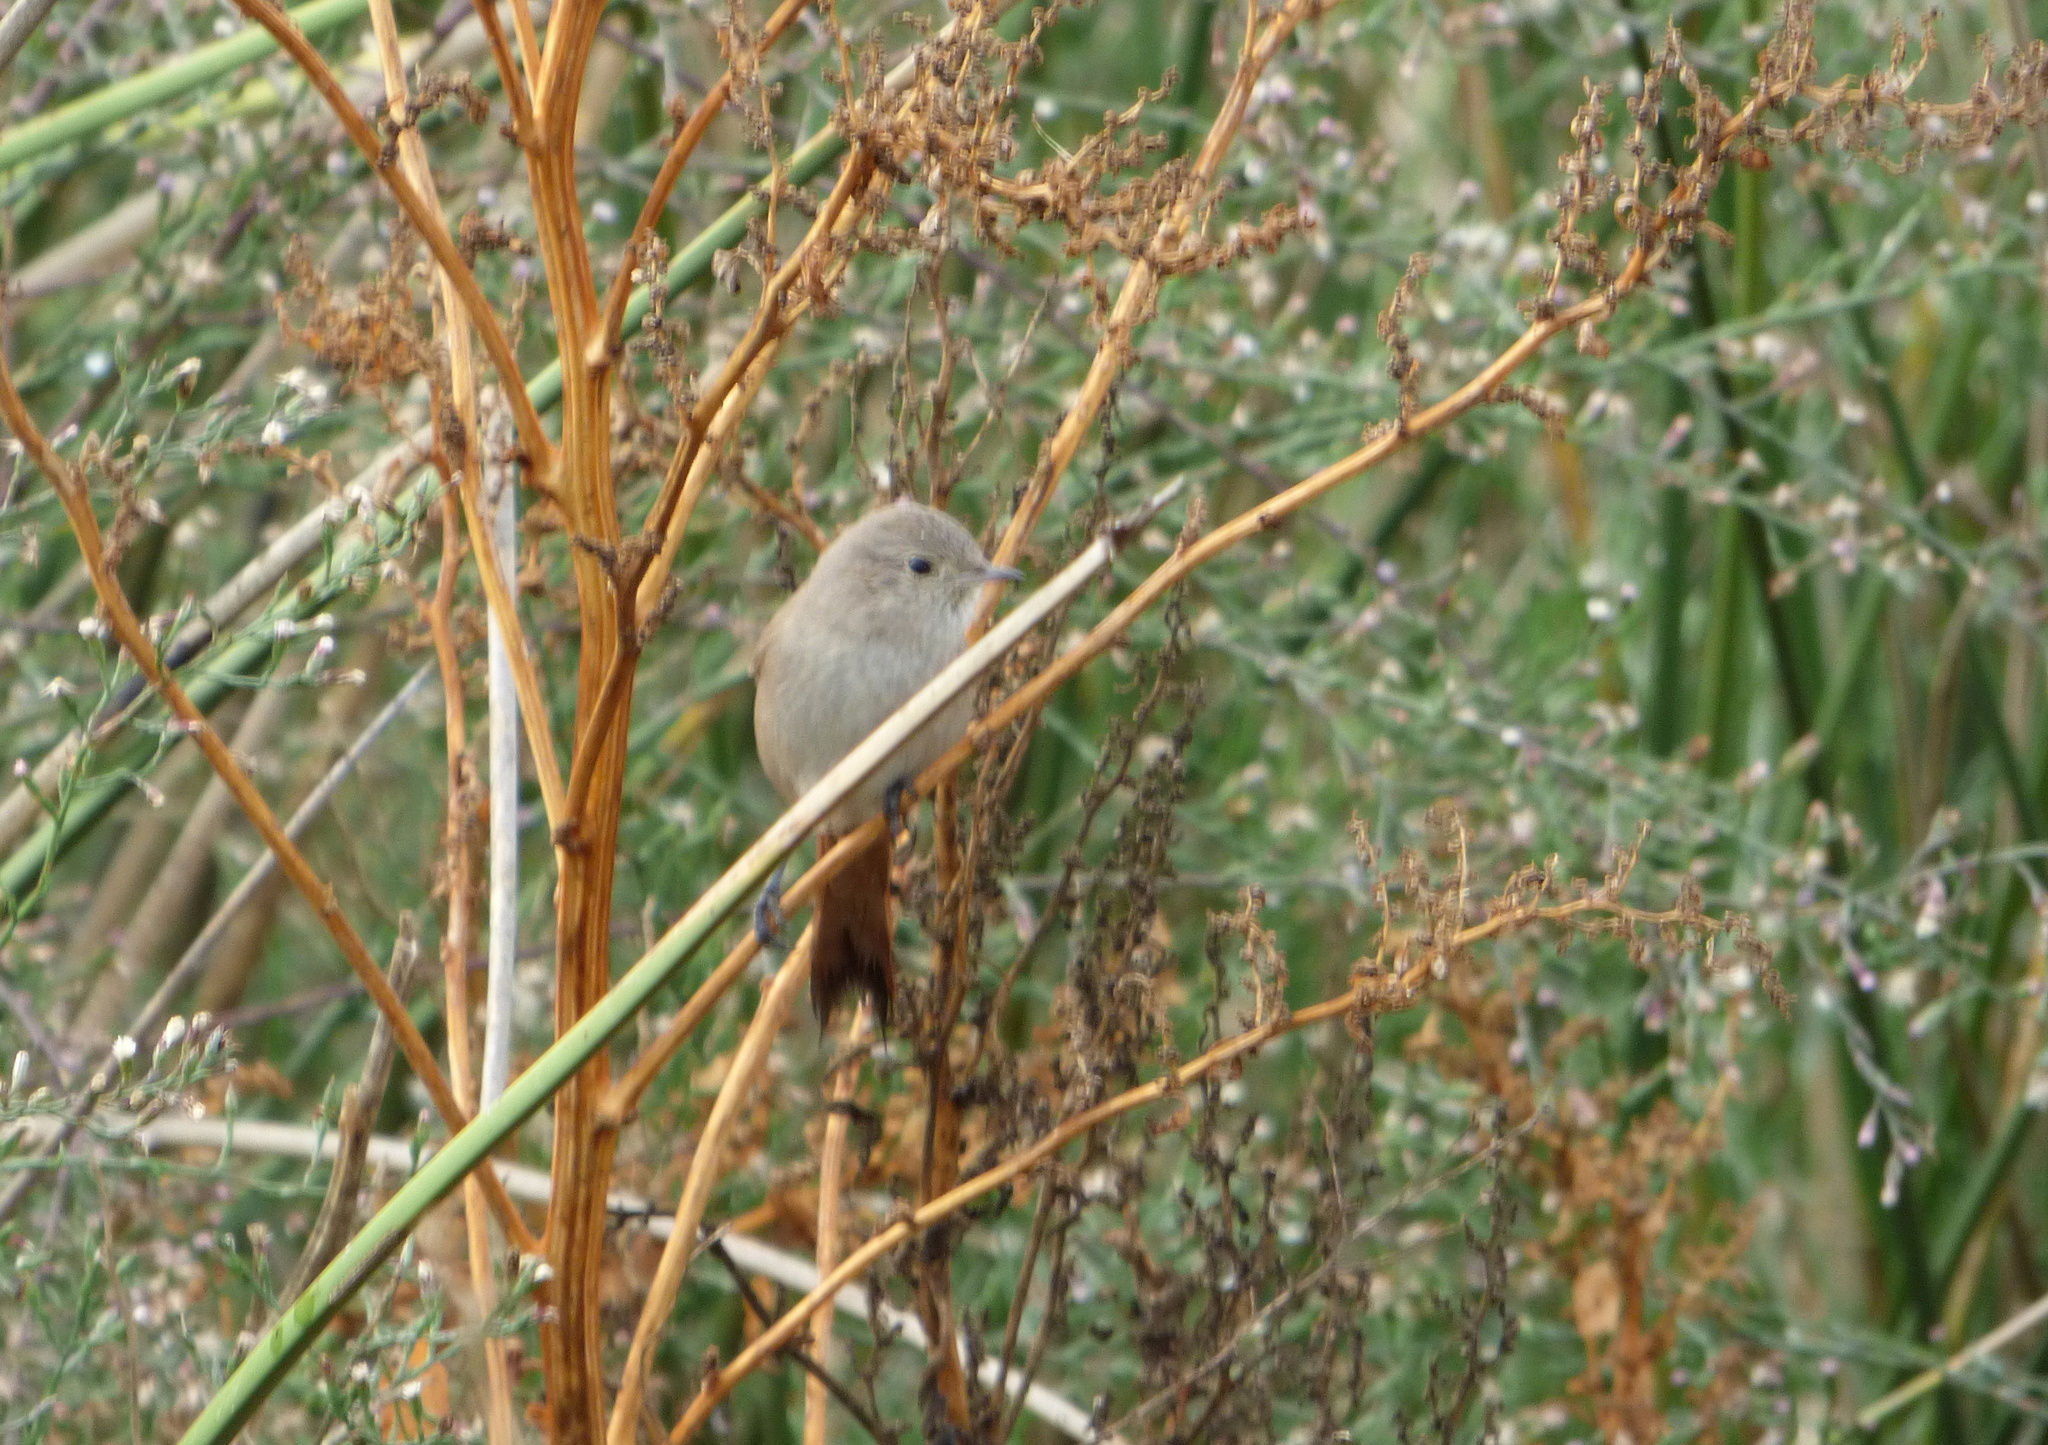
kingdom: Animalia
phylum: Chordata
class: Aves
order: Passeriformes
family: Furnariidae
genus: Asthenes
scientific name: Asthenes pyrrholeuca
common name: Sharp-billed canastero
